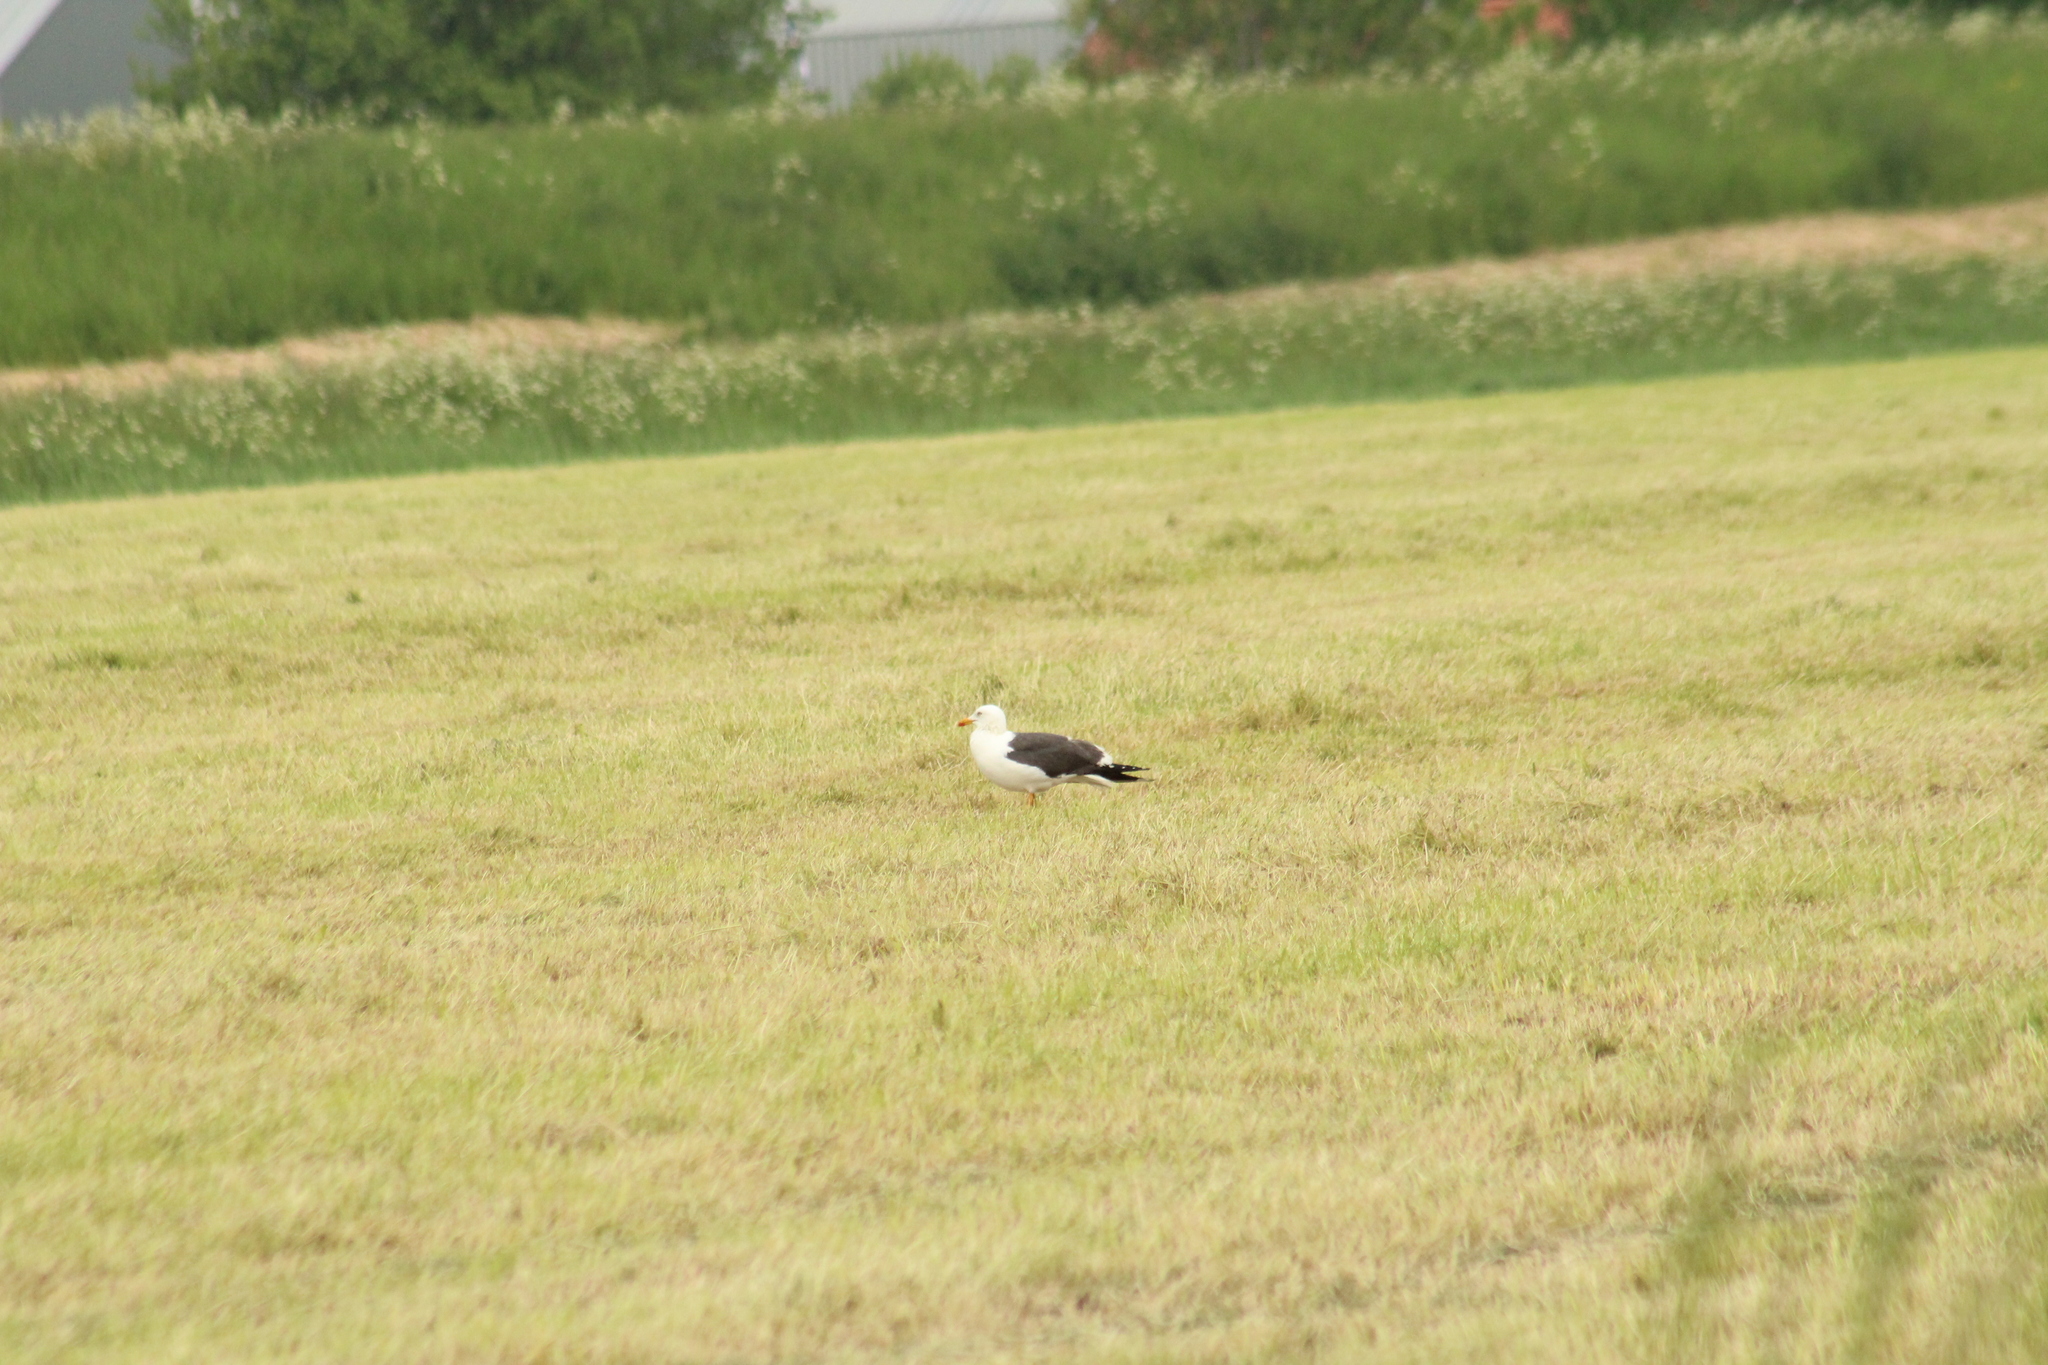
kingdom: Animalia
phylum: Chordata
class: Aves
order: Charadriiformes
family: Laridae
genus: Larus
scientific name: Larus fuscus
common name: Lesser black-backed gull
